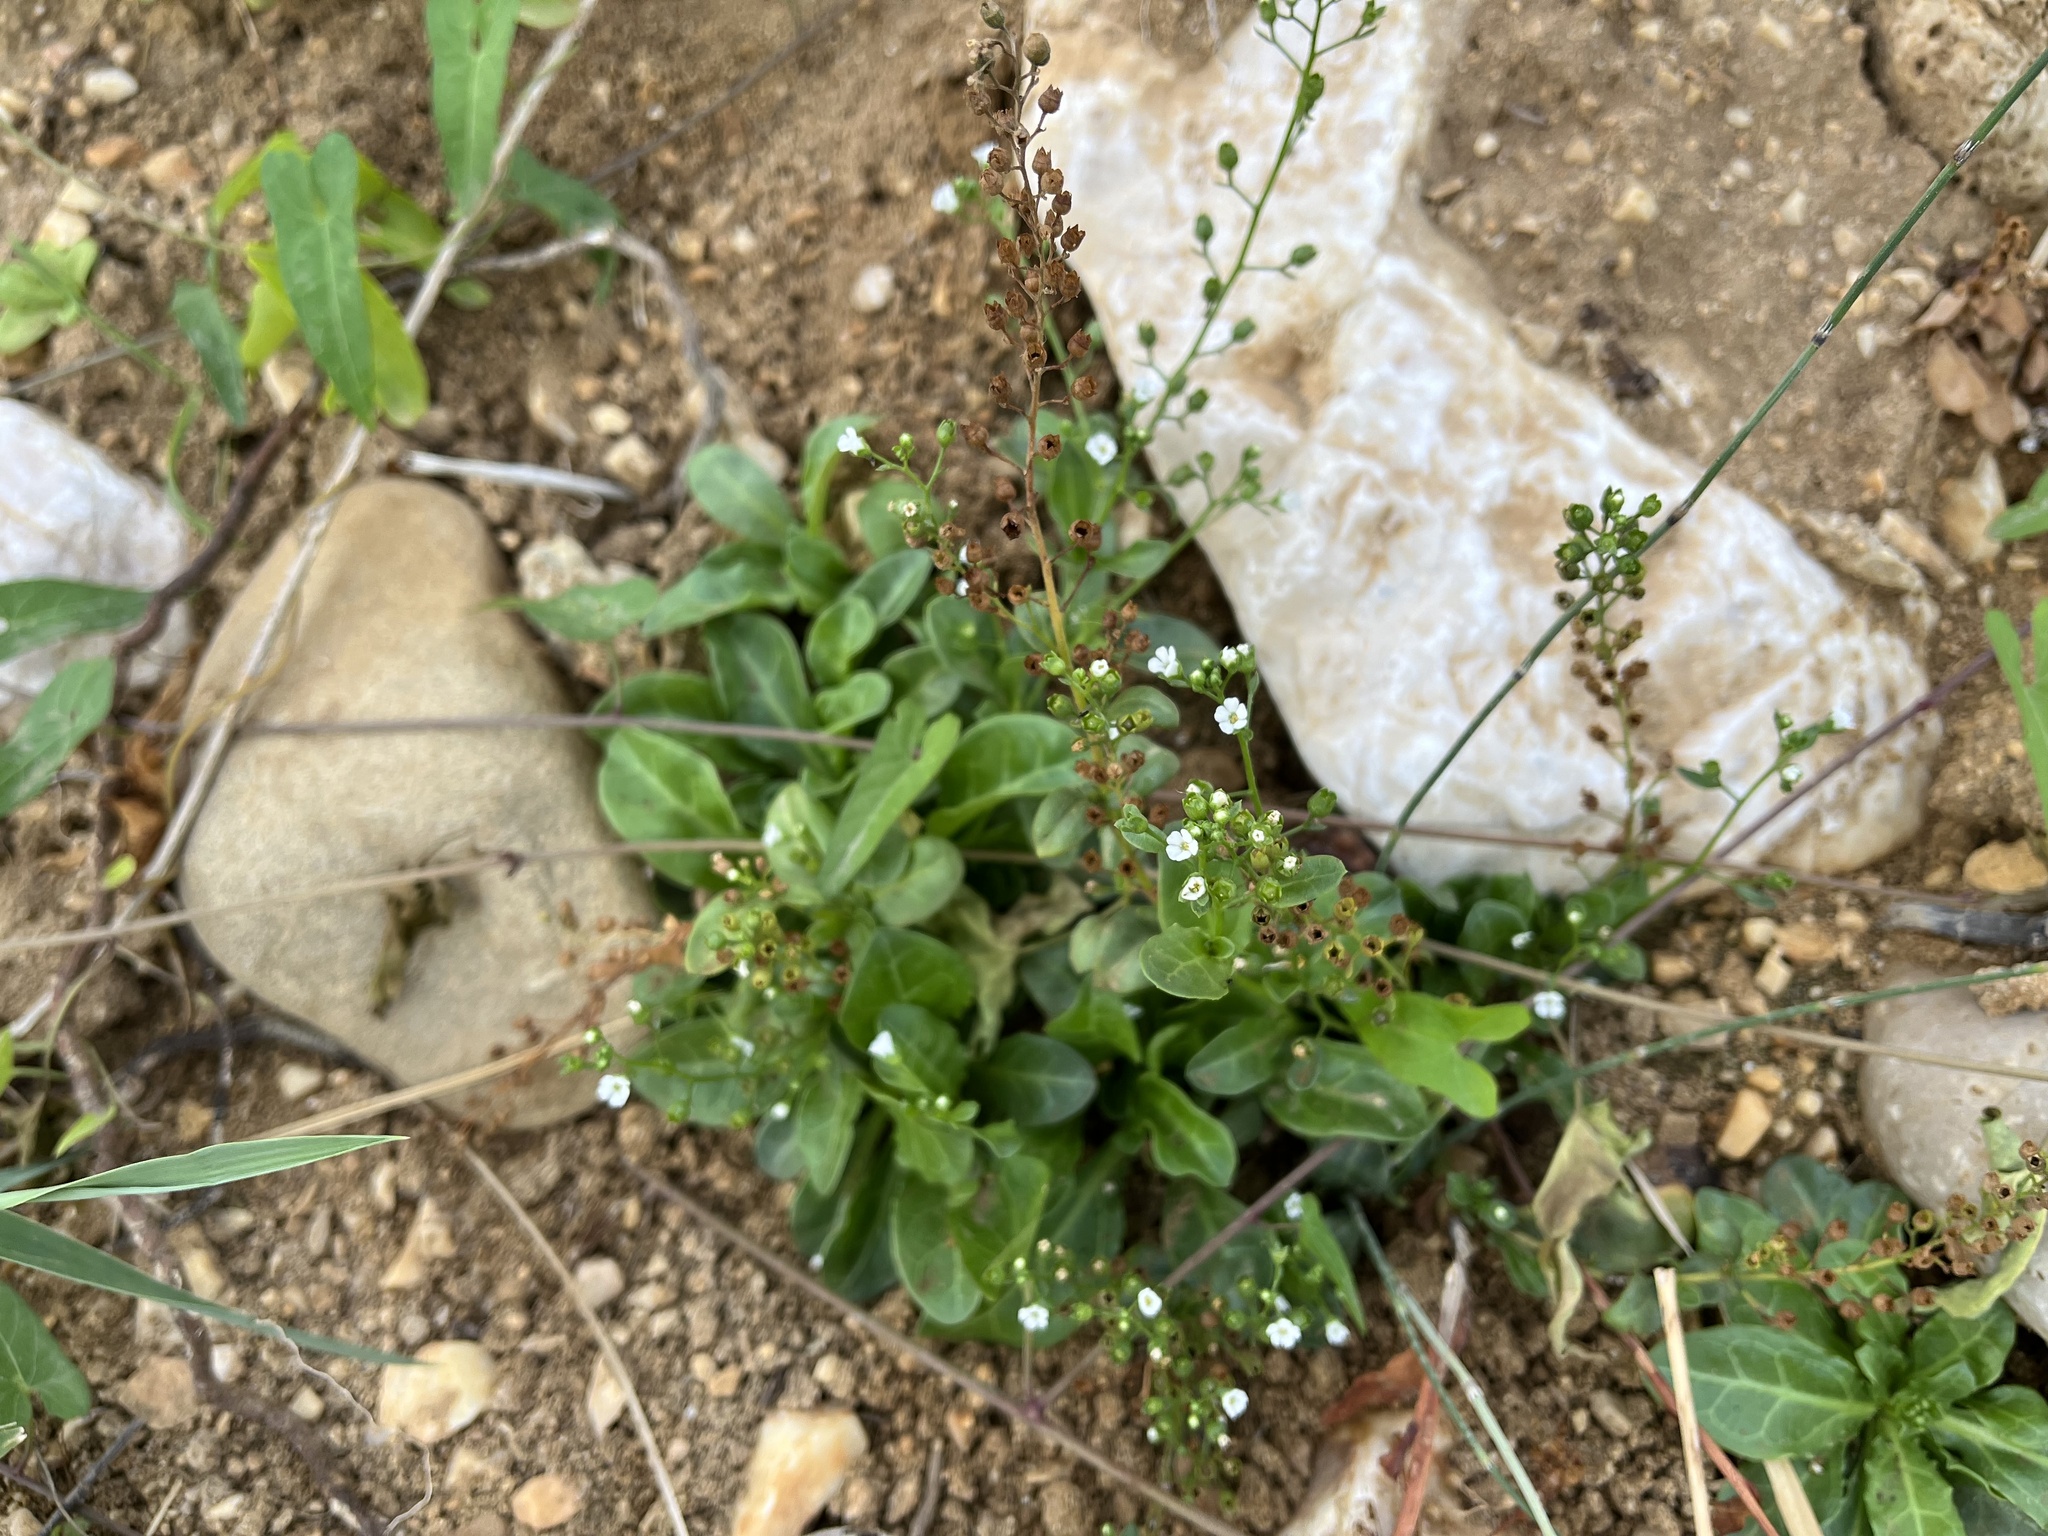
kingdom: Plantae
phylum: Tracheophyta
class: Magnoliopsida
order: Ericales
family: Primulaceae
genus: Samolus
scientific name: Samolus valerandi
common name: Brookweed
